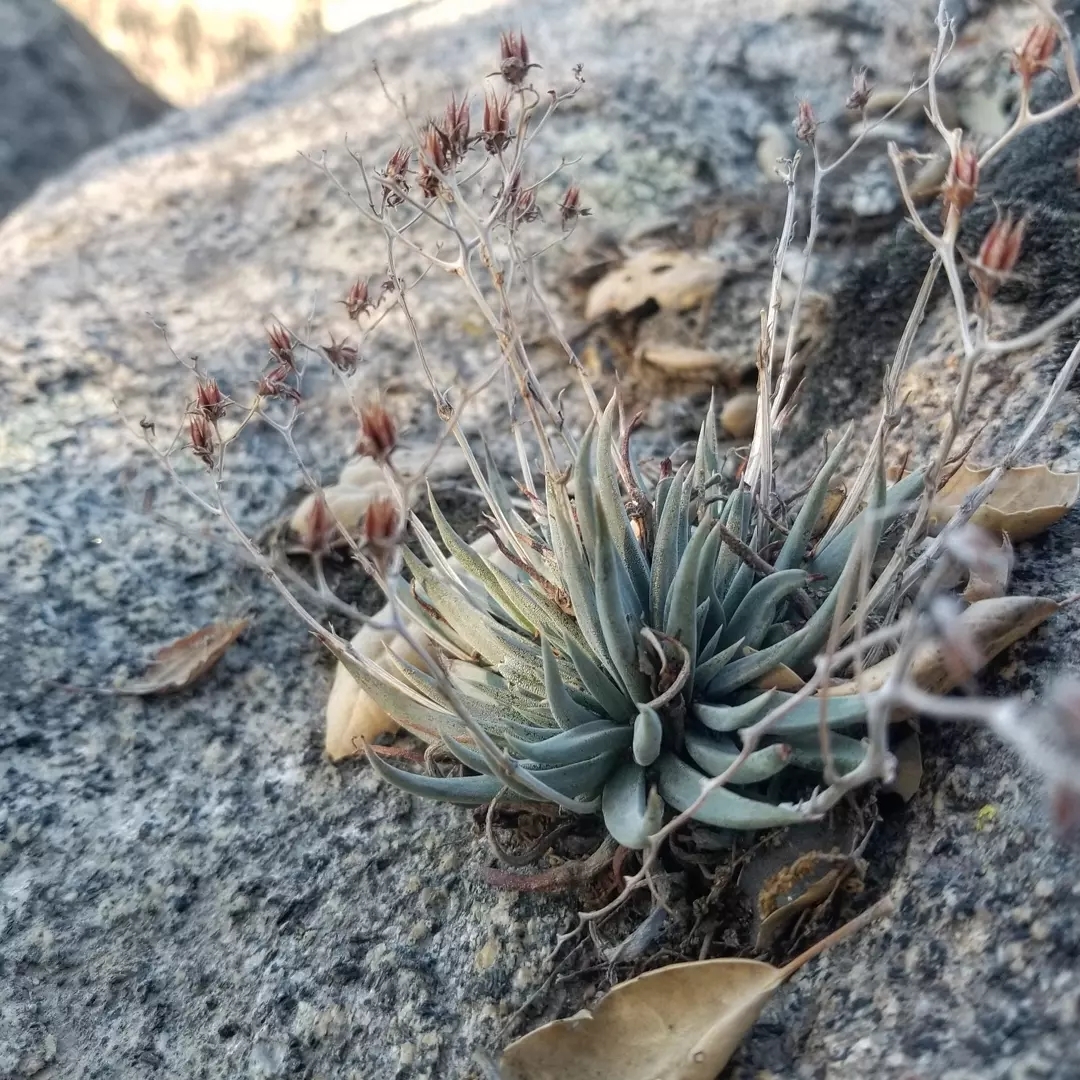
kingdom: Plantae
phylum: Tracheophyta
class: Magnoliopsida
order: Saxifragales
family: Crassulaceae
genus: Dudleya
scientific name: Dudleya abramsii
